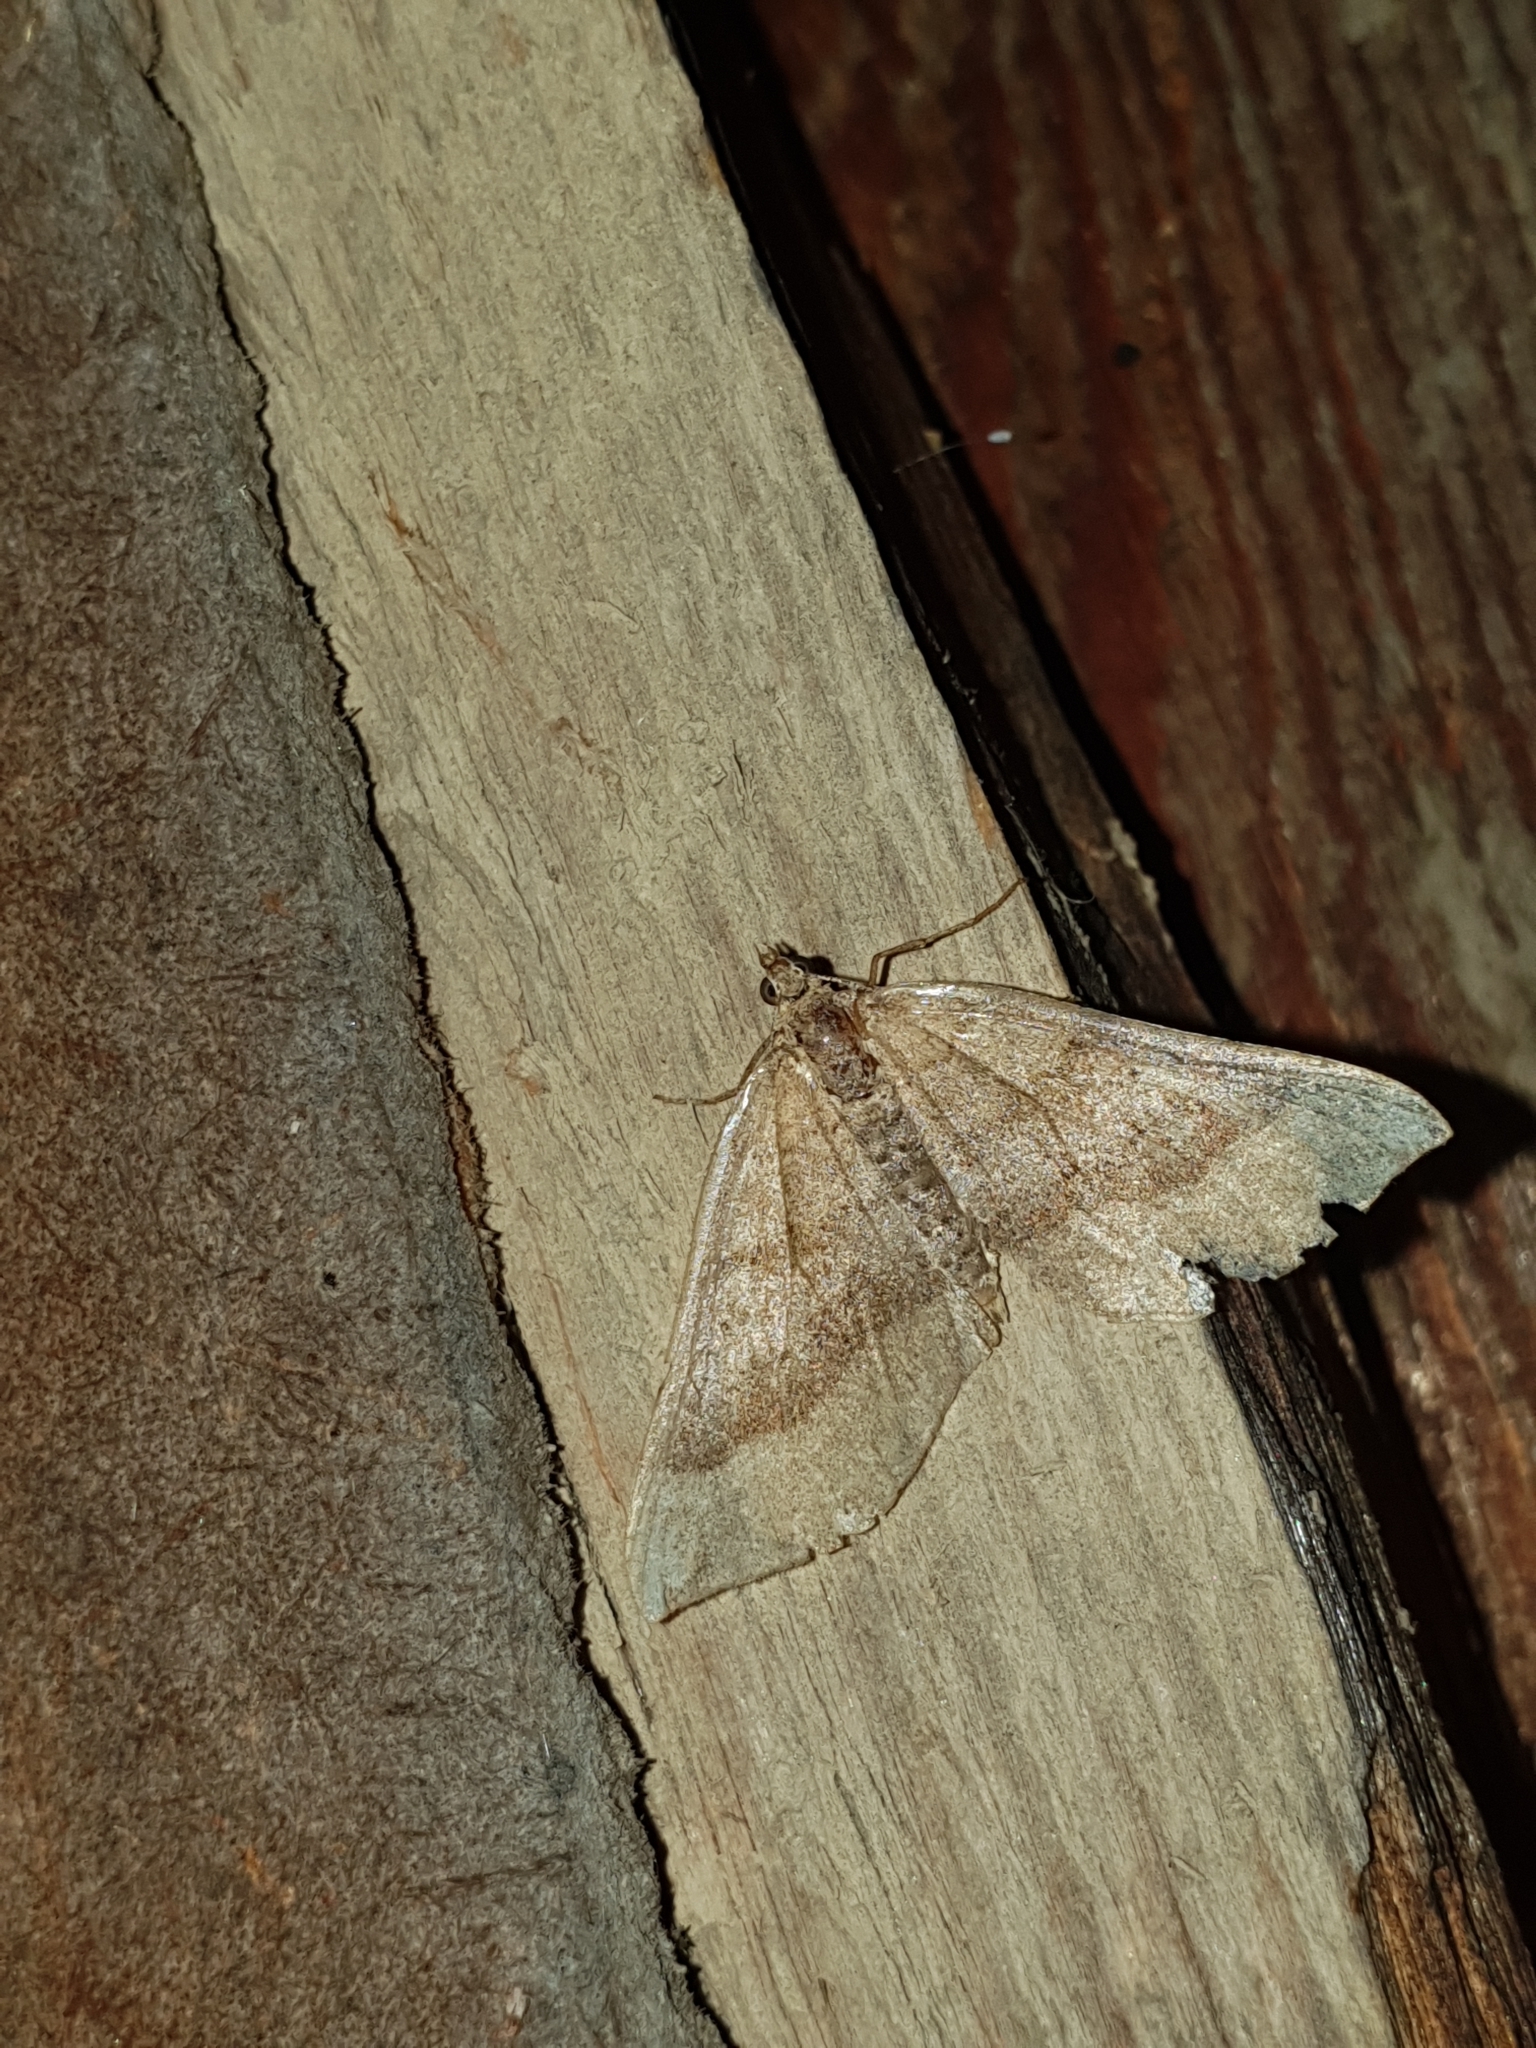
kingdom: Animalia
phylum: Arthropoda
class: Insecta
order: Lepidoptera
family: Erebidae
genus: Hypena
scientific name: Hypena proboscidalis
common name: Snout
